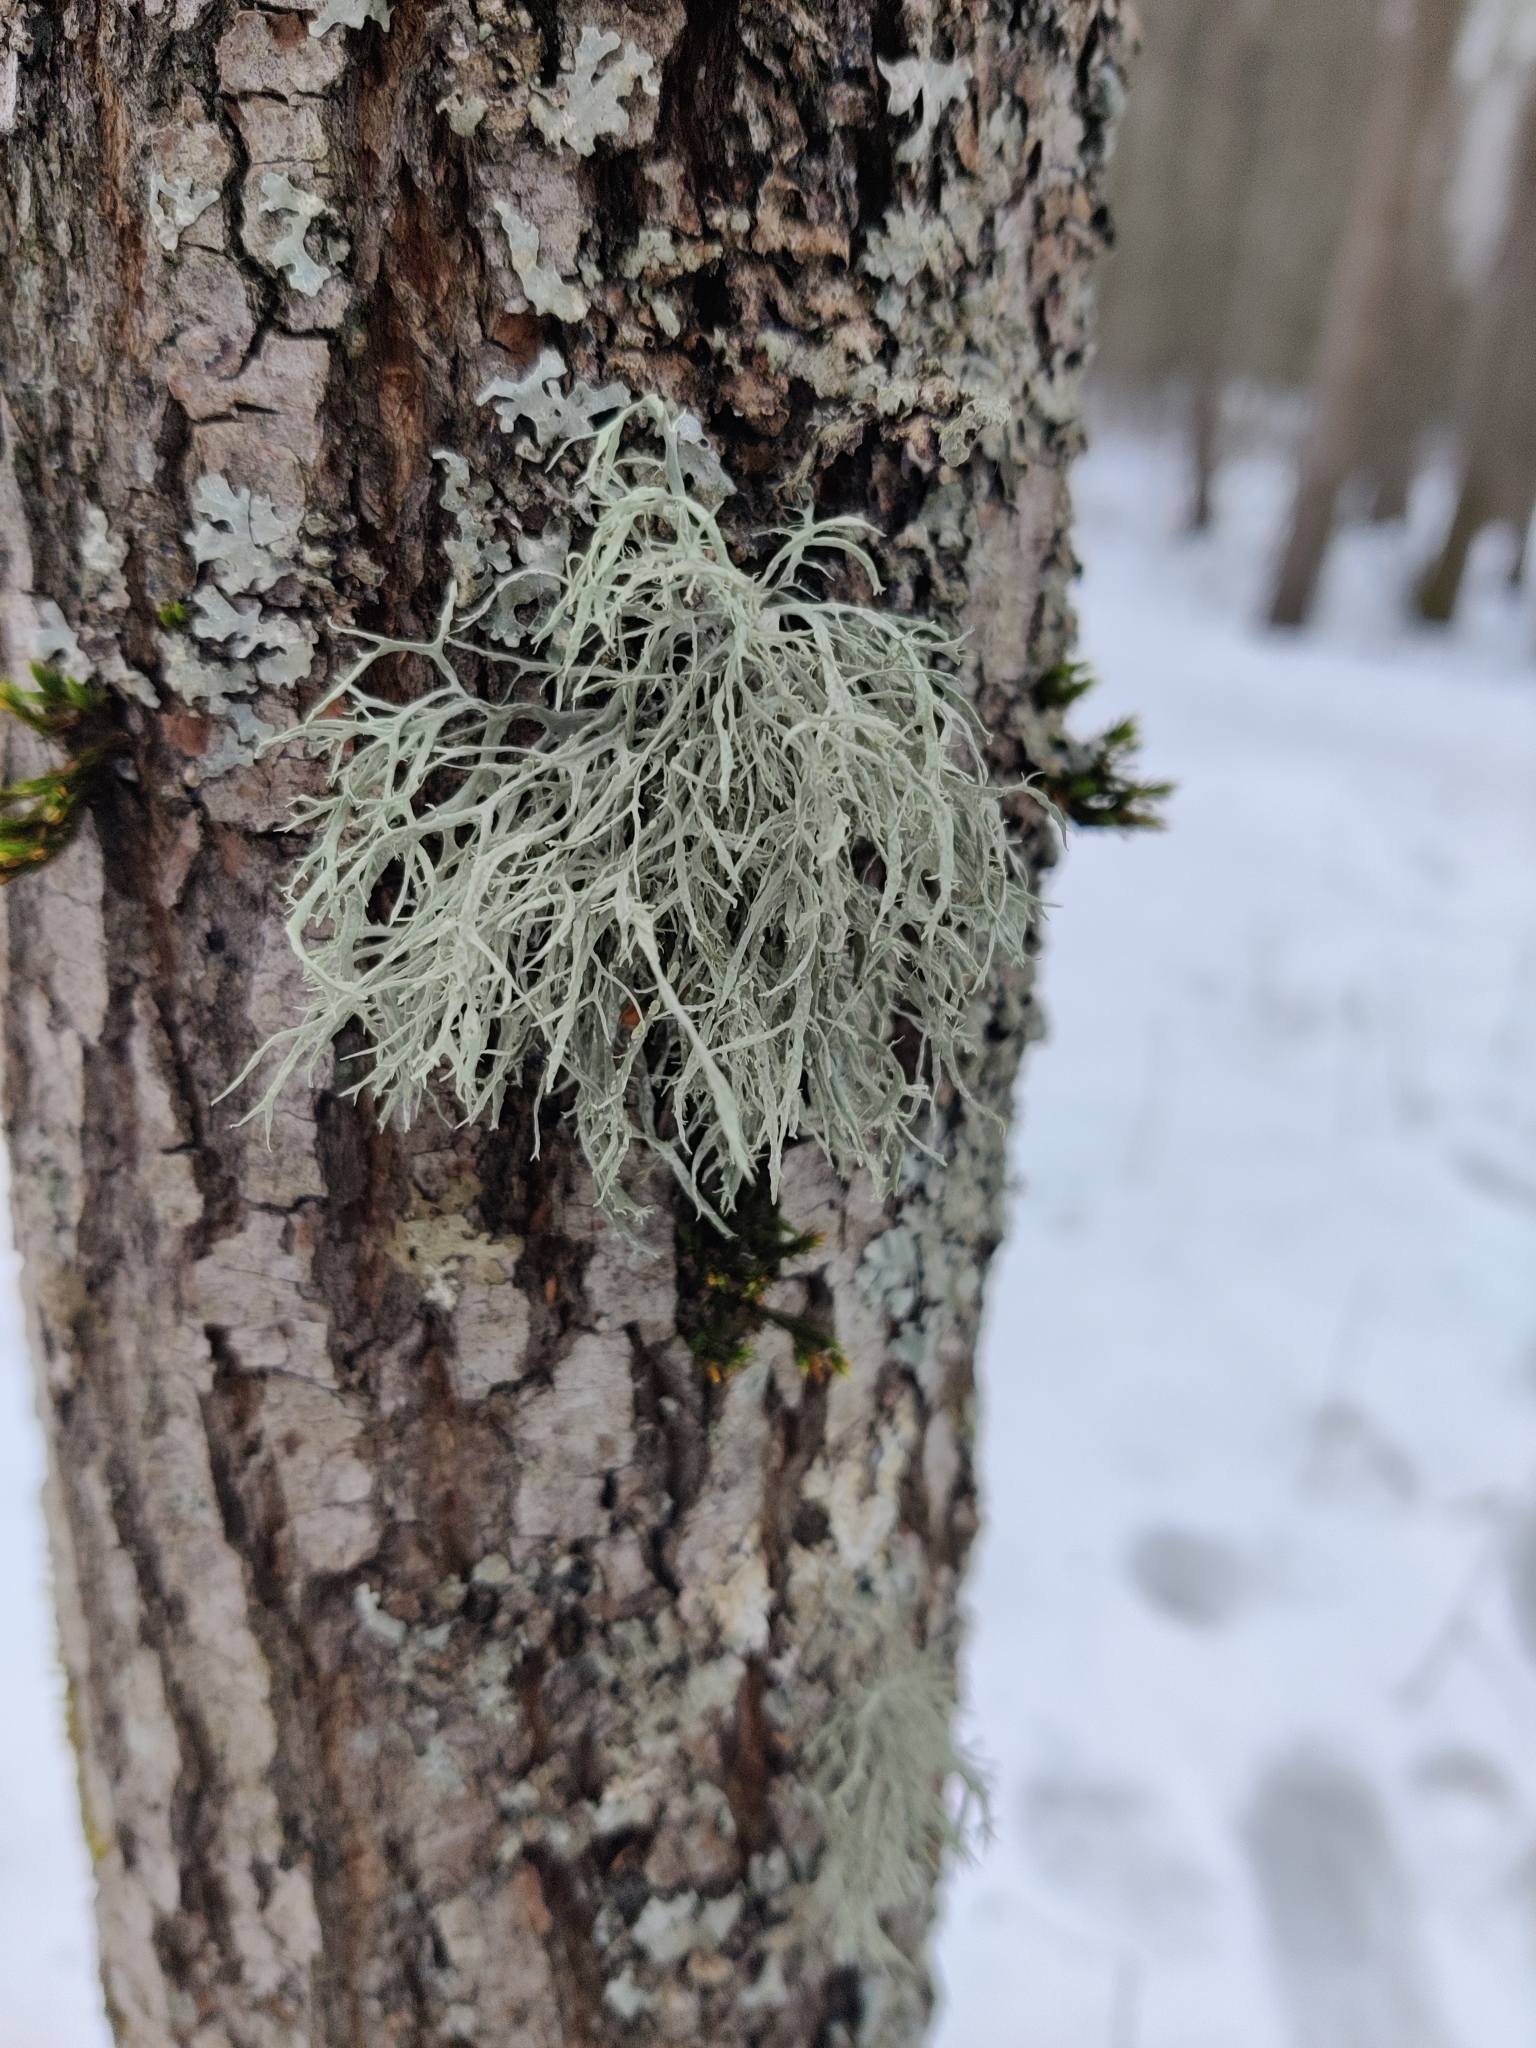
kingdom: Fungi
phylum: Ascomycota
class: Lecanoromycetes
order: Lecanorales
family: Ramalinaceae
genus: Ramalina
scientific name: Ramalina farinacea
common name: Farinose cartilage lichen
